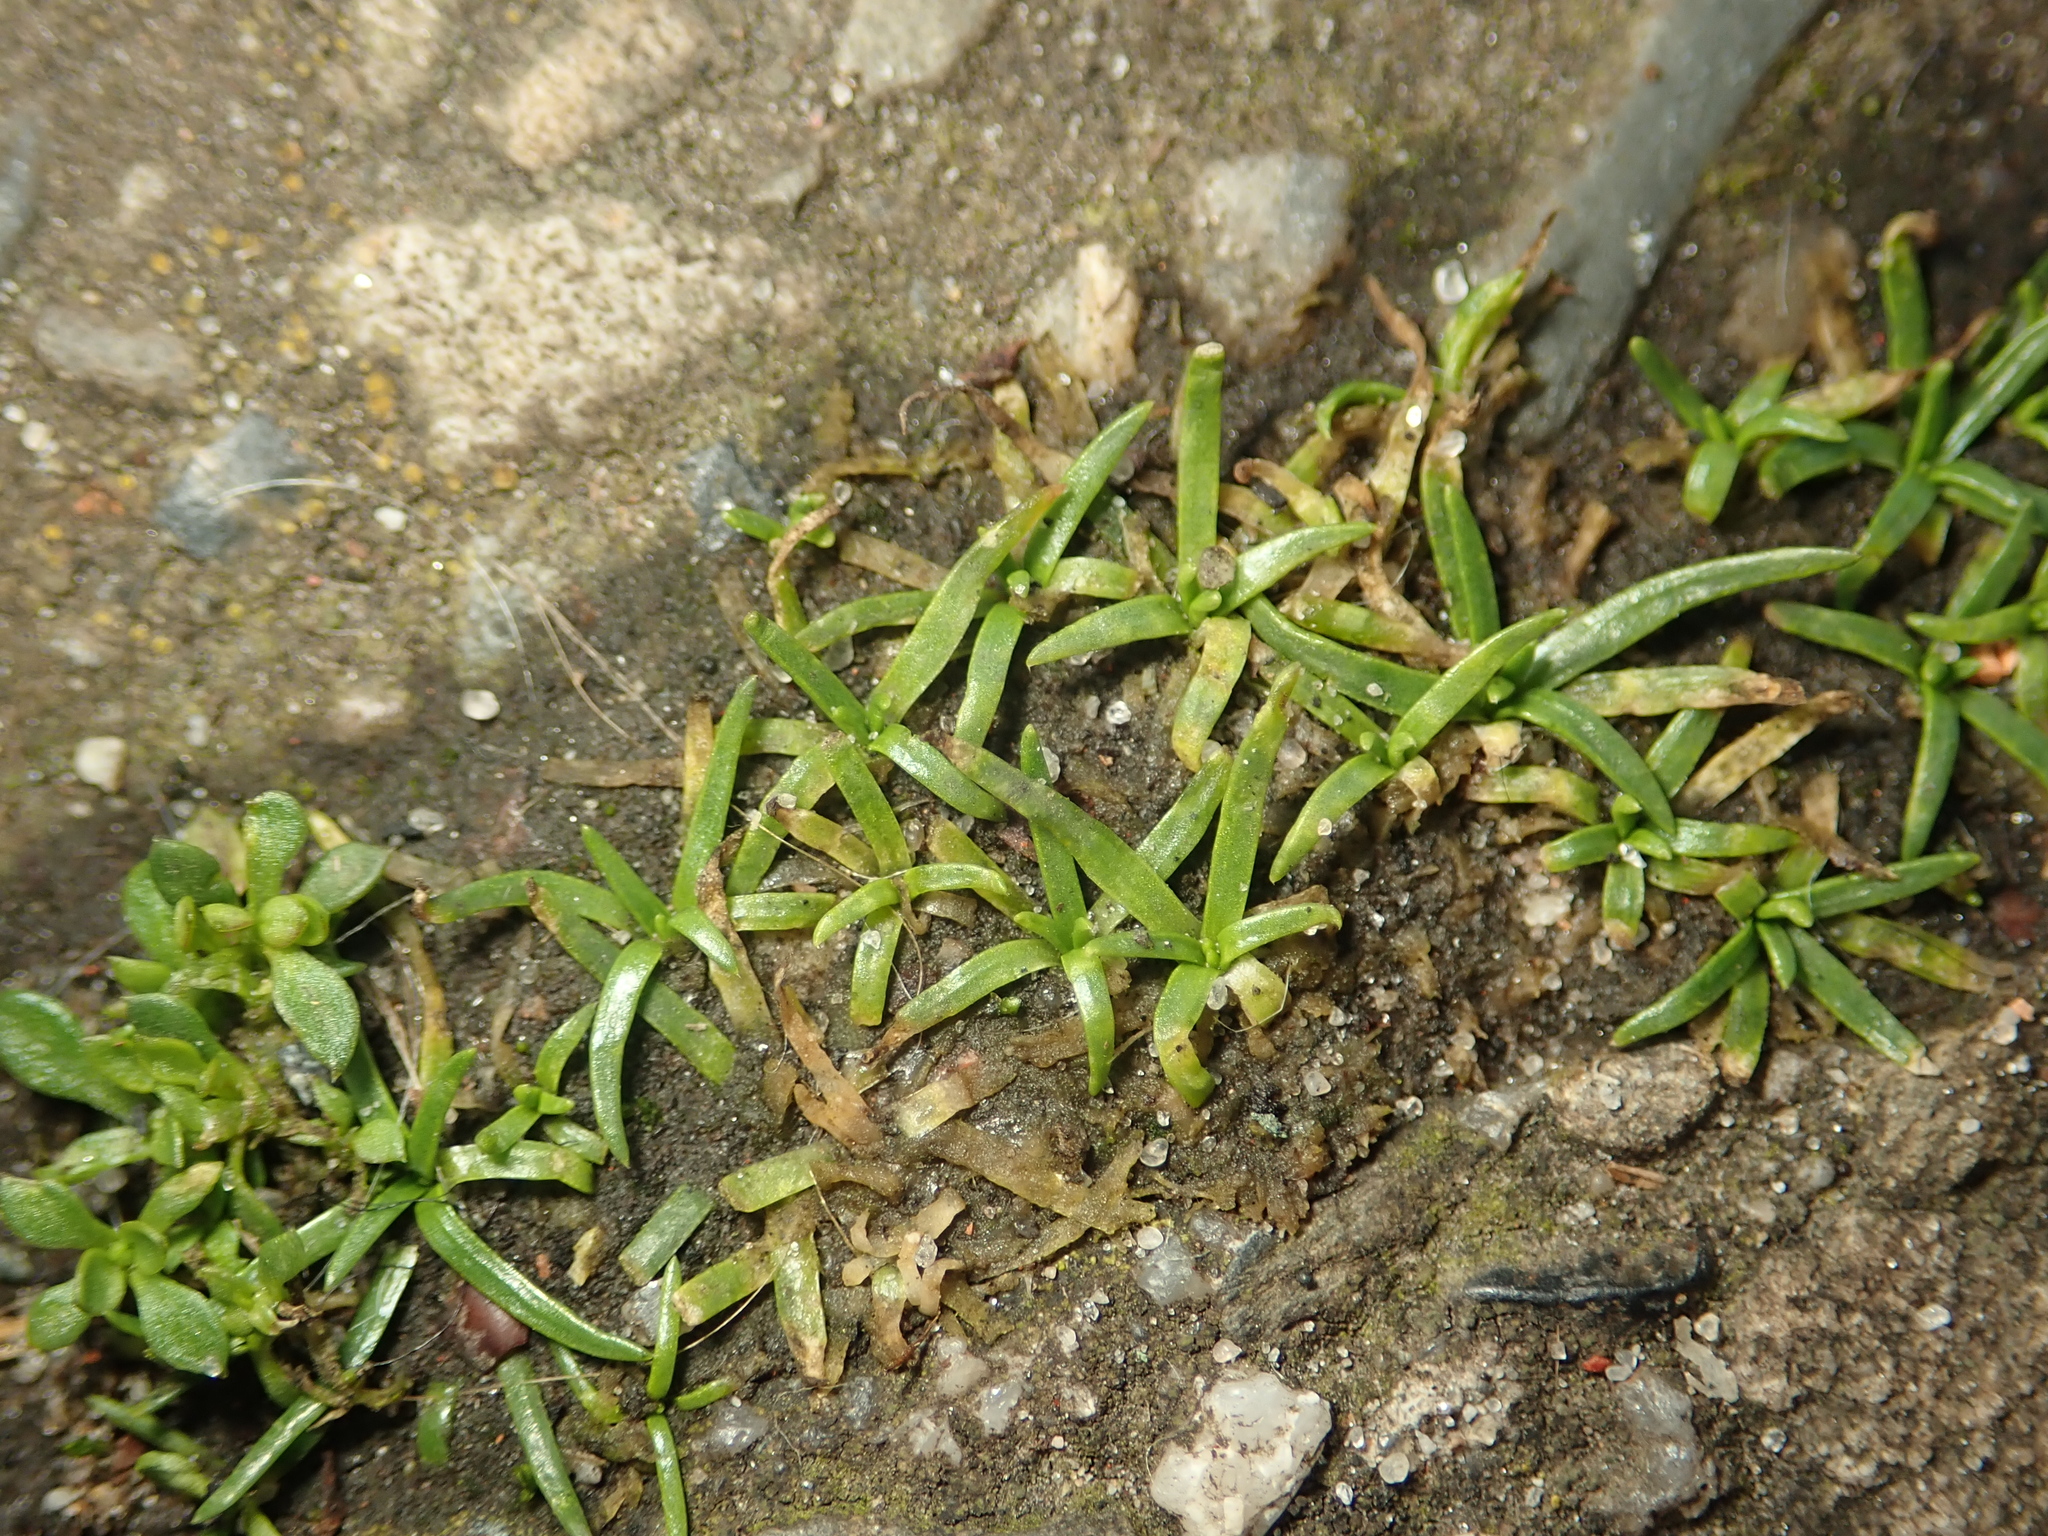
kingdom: Plantae
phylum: Tracheophyta
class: Magnoliopsida
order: Caryophyllales
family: Caryophyllaceae
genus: Sagina
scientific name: Sagina procumbens
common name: Procumbent pearlwort
